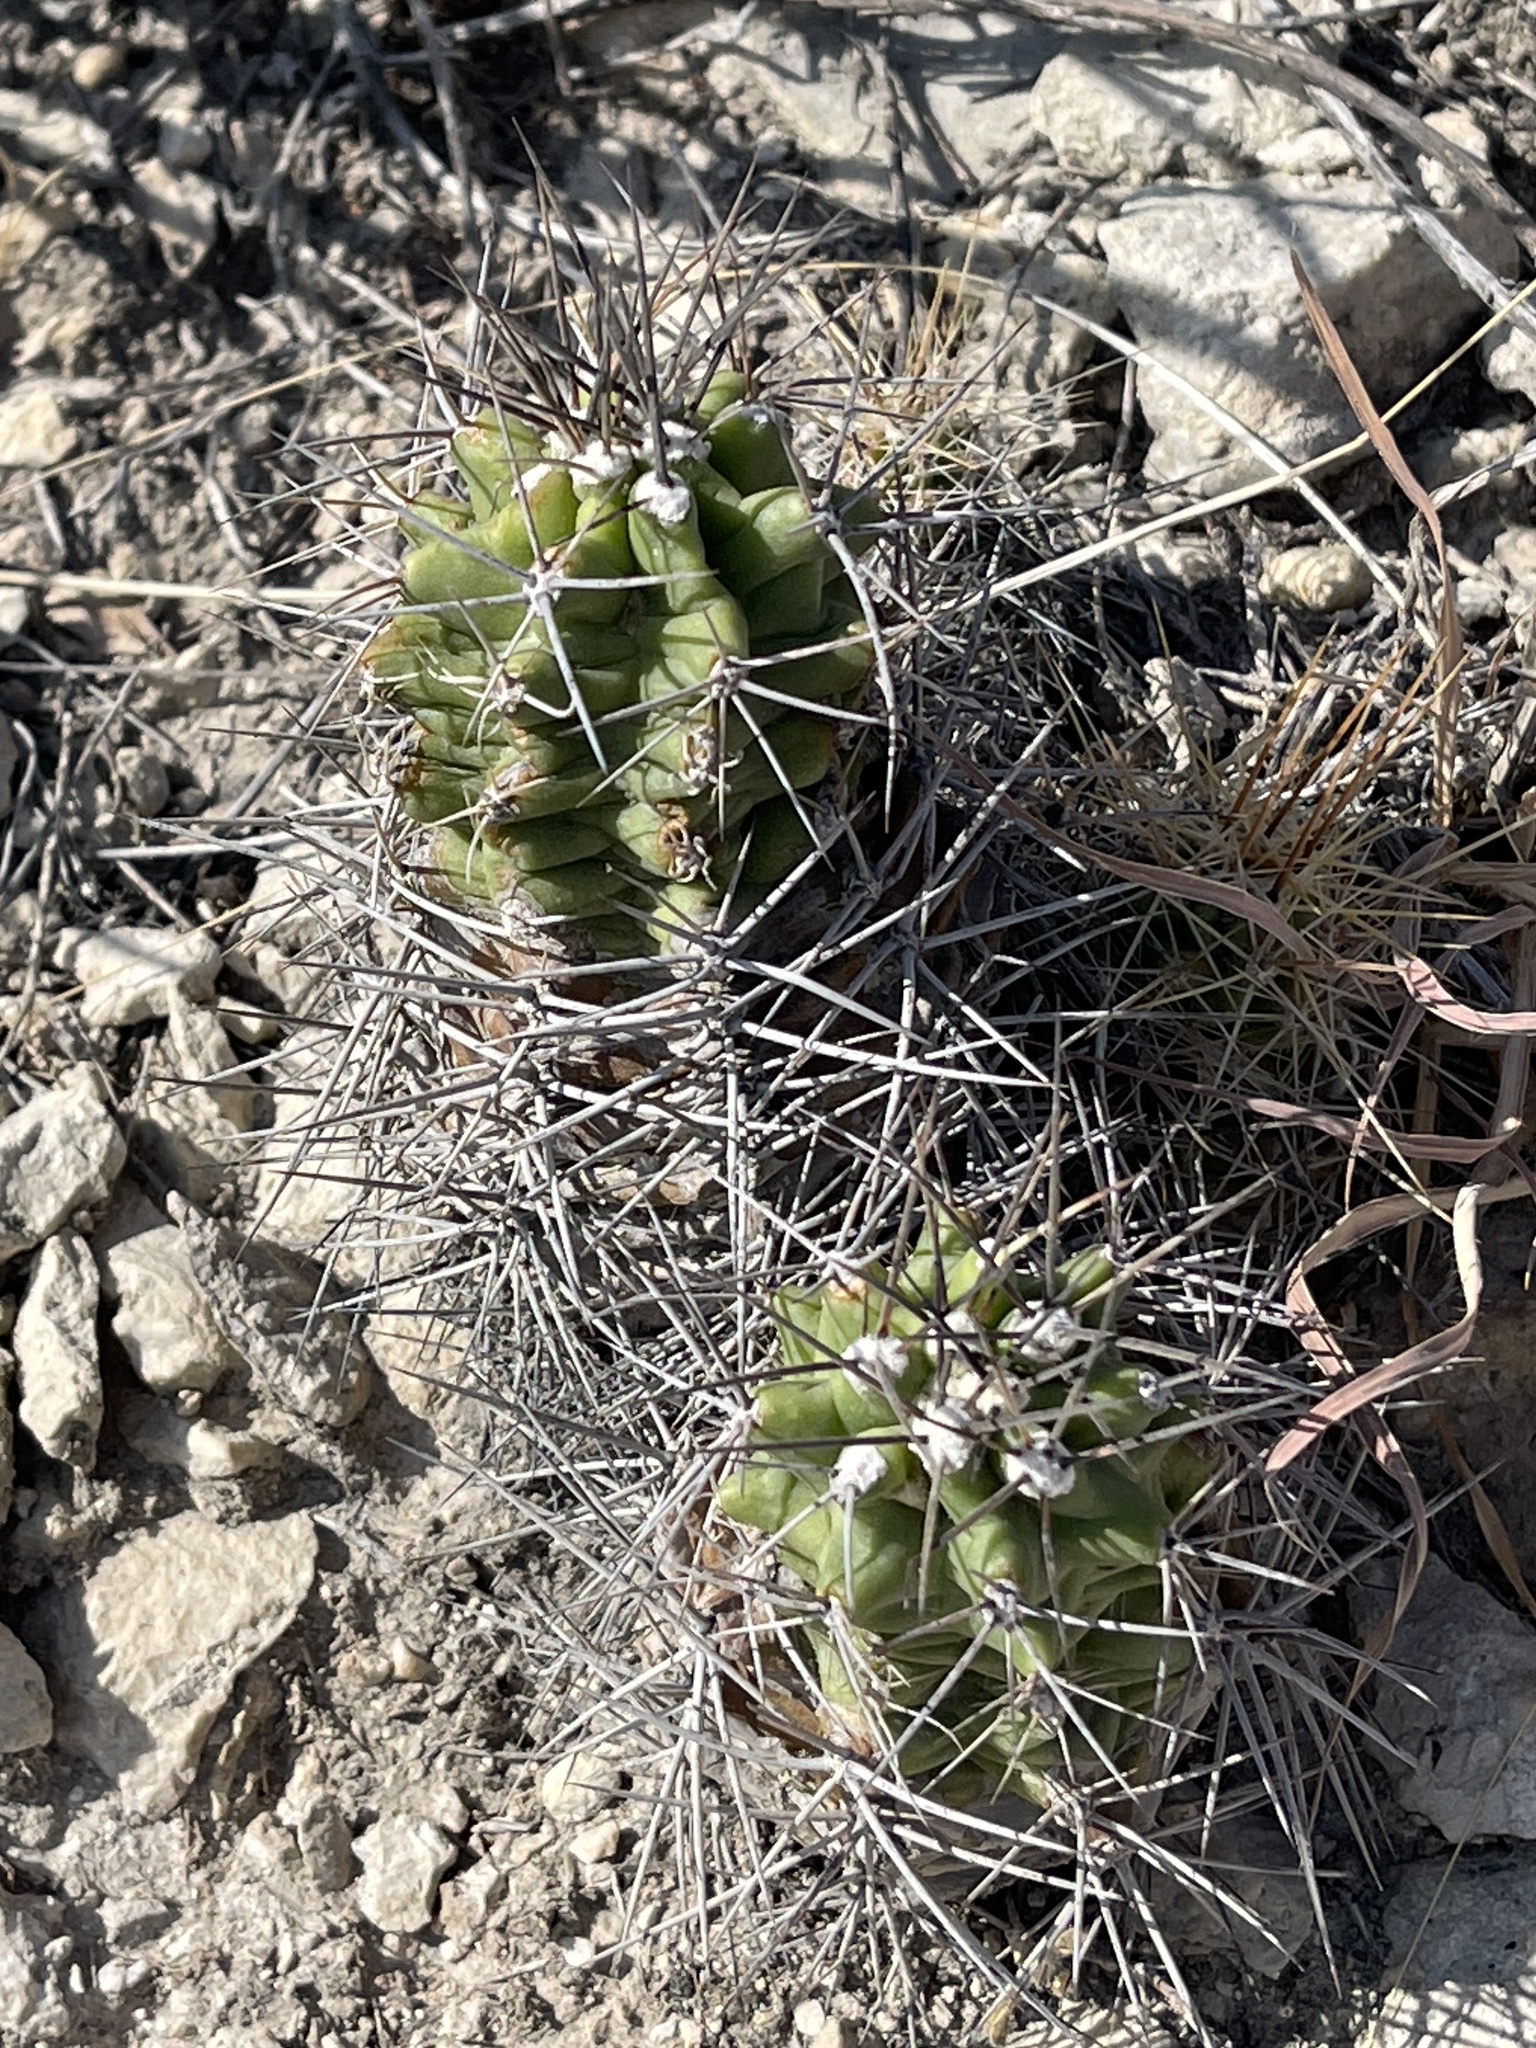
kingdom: Plantae
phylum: Tracheophyta
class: Magnoliopsida
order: Caryophyllales
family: Cactaceae
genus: Echinocereus
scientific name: Echinocereus coccineus
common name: Scarlet hedgehog cactus
